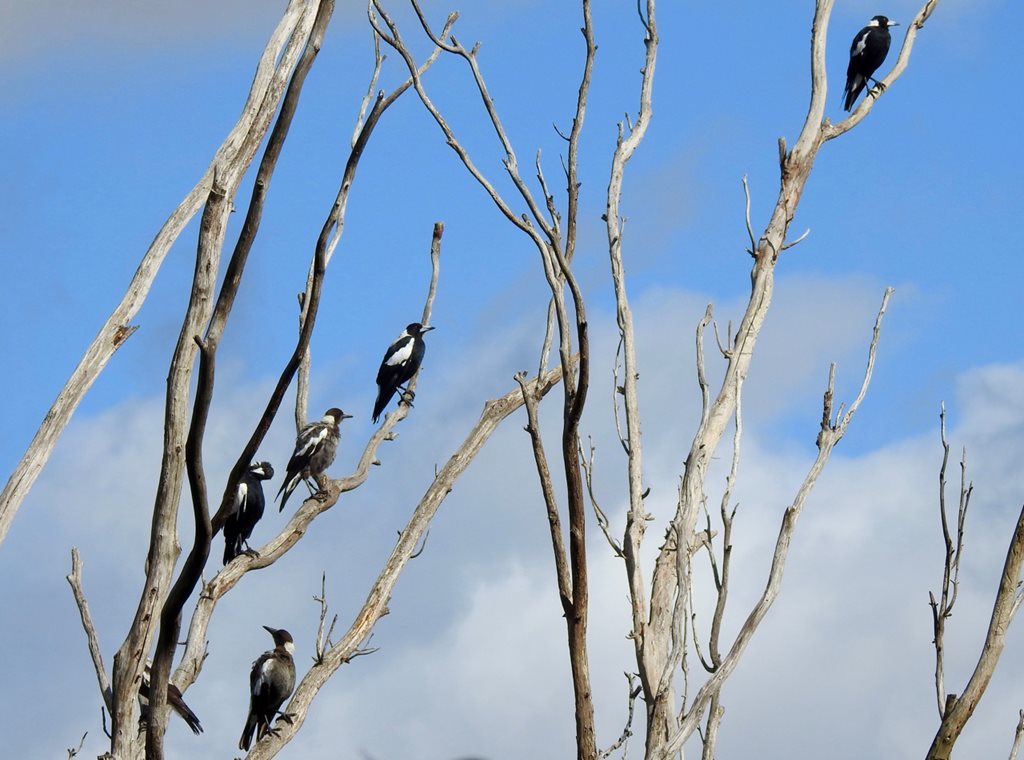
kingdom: Animalia
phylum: Chordata
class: Aves
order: Passeriformes
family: Cracticidae
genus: Gymnorhina
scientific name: Gymnorhina tibicen
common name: Australian magpie
